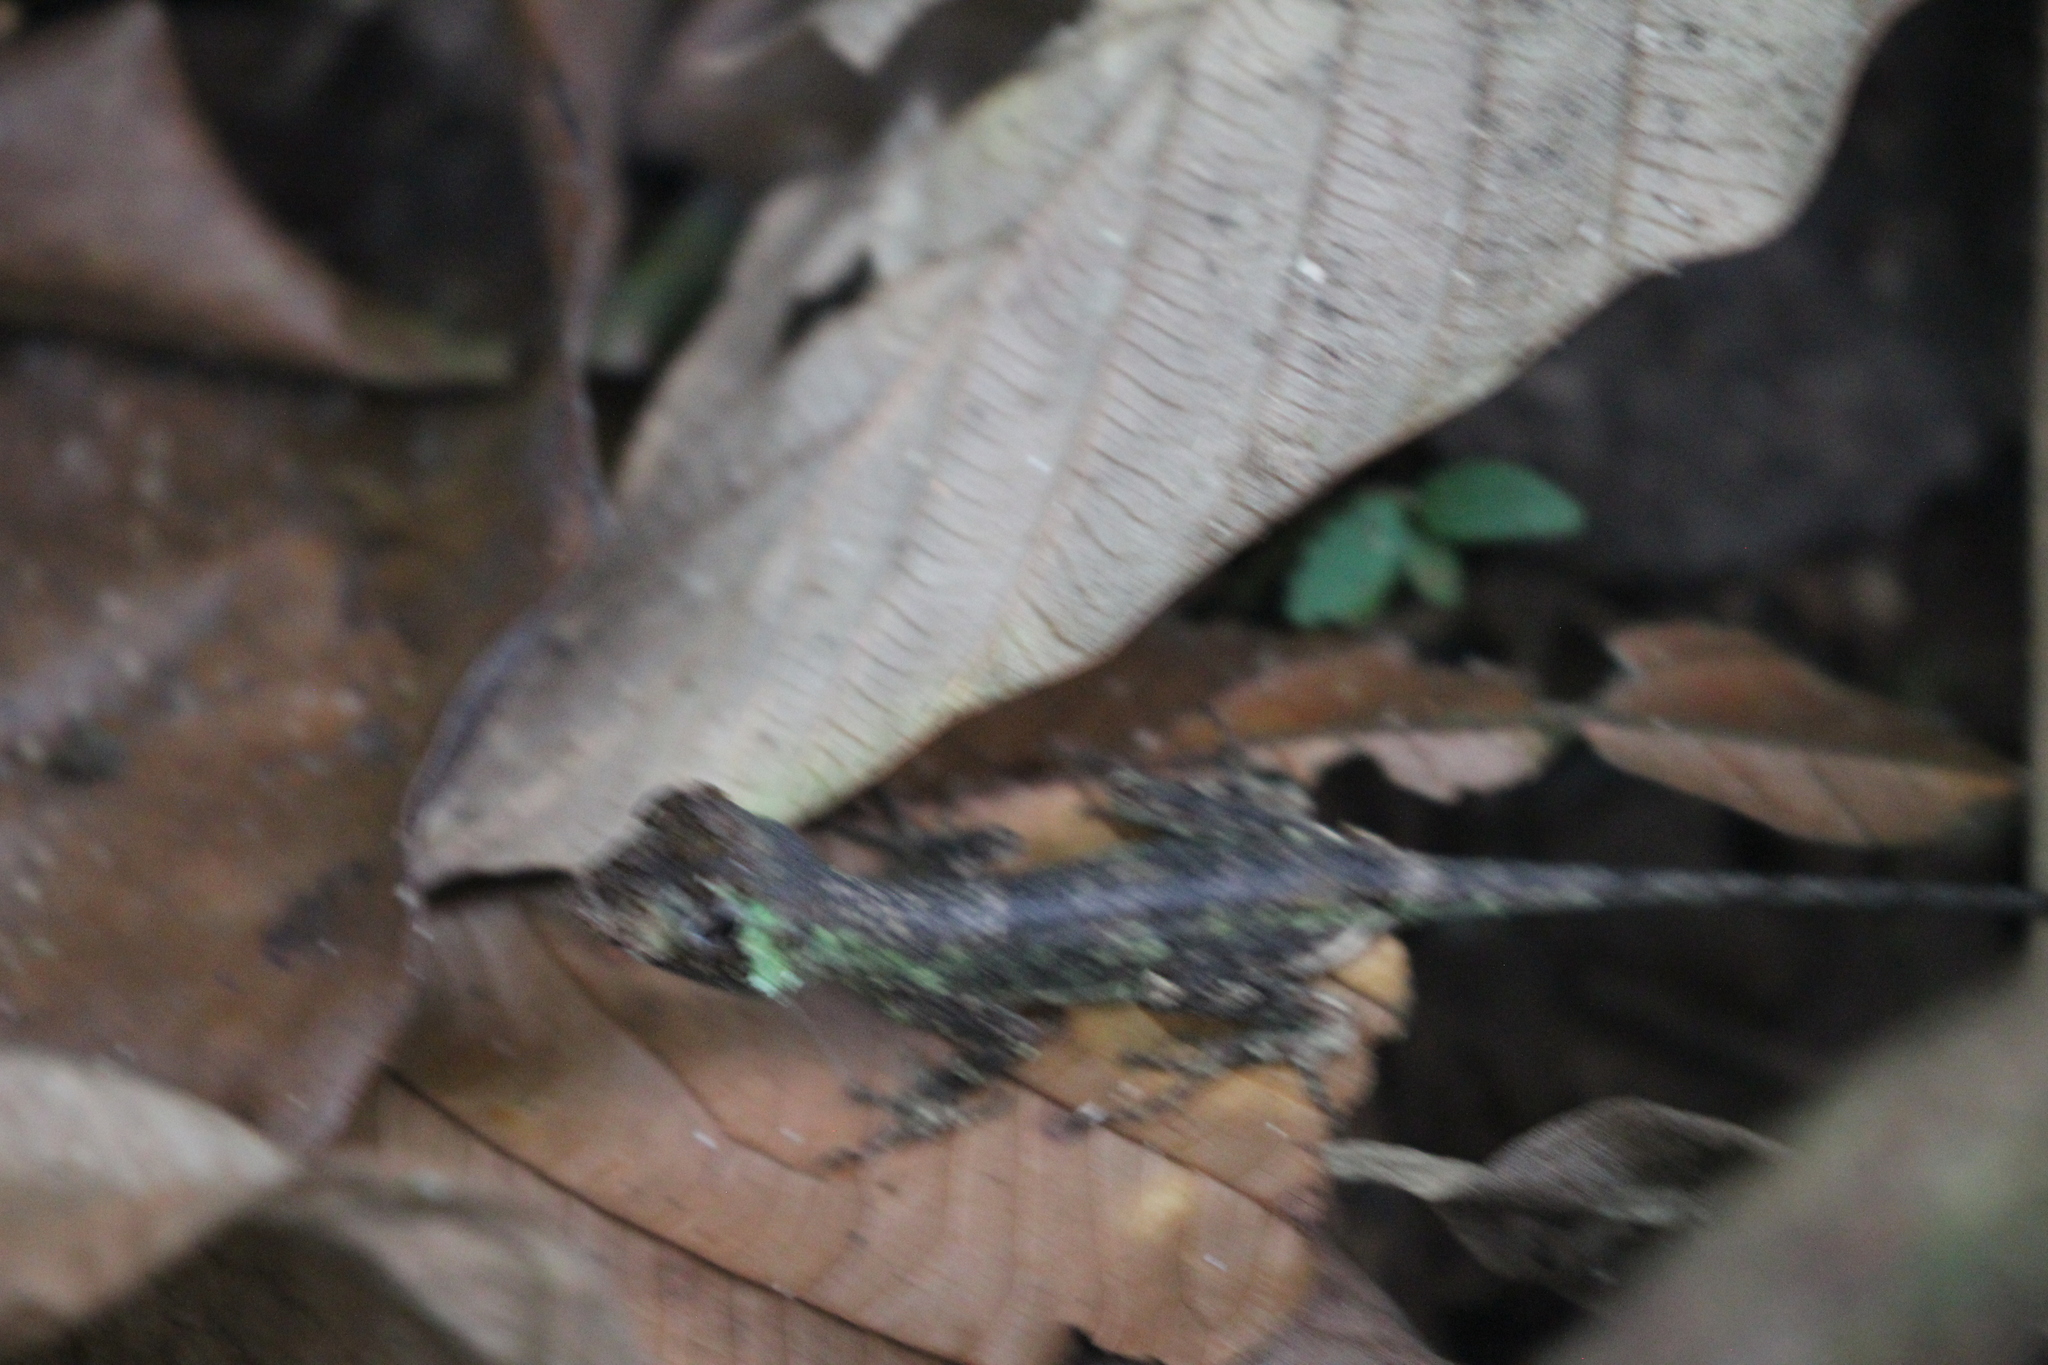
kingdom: Animalia
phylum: Chordata
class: Squamata
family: Dactyloidae
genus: Anolis
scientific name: Anolis capito
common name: Bighead anole
